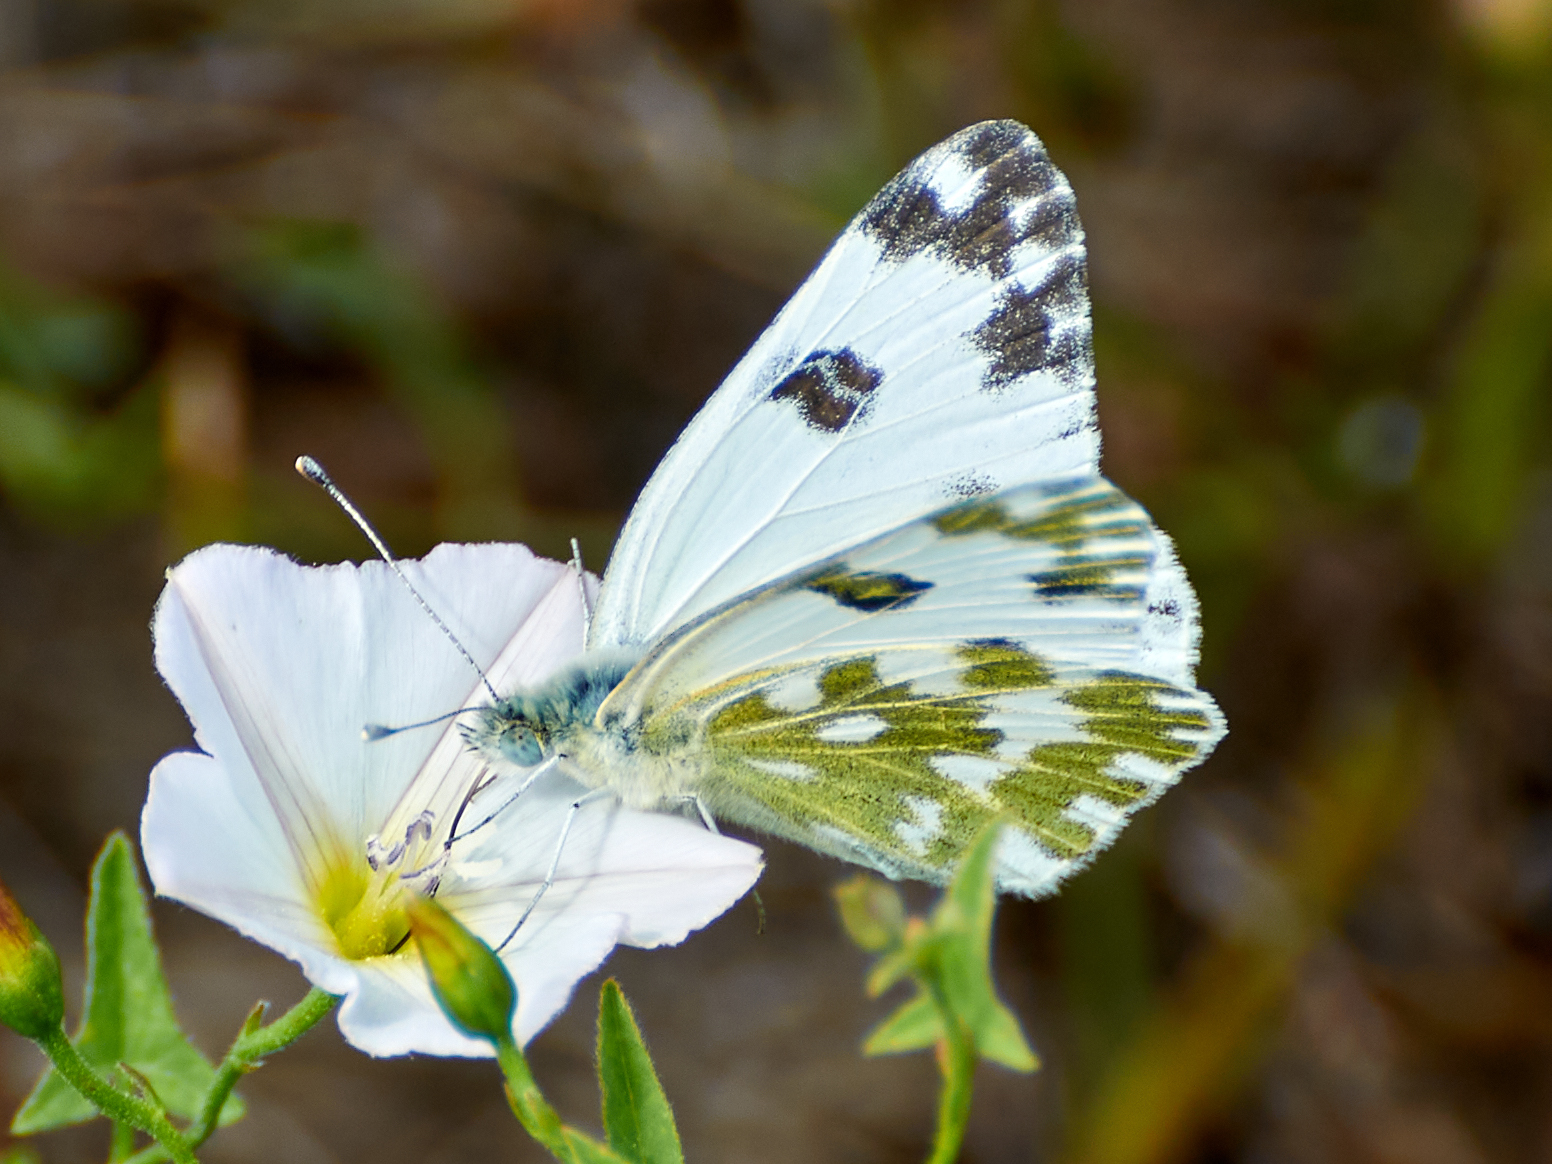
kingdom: Animalia
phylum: Arthropoda
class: Insecta
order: Lepidoptera
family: Pieridae
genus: Pontia
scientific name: Pontia edusa
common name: Eastern bath white
